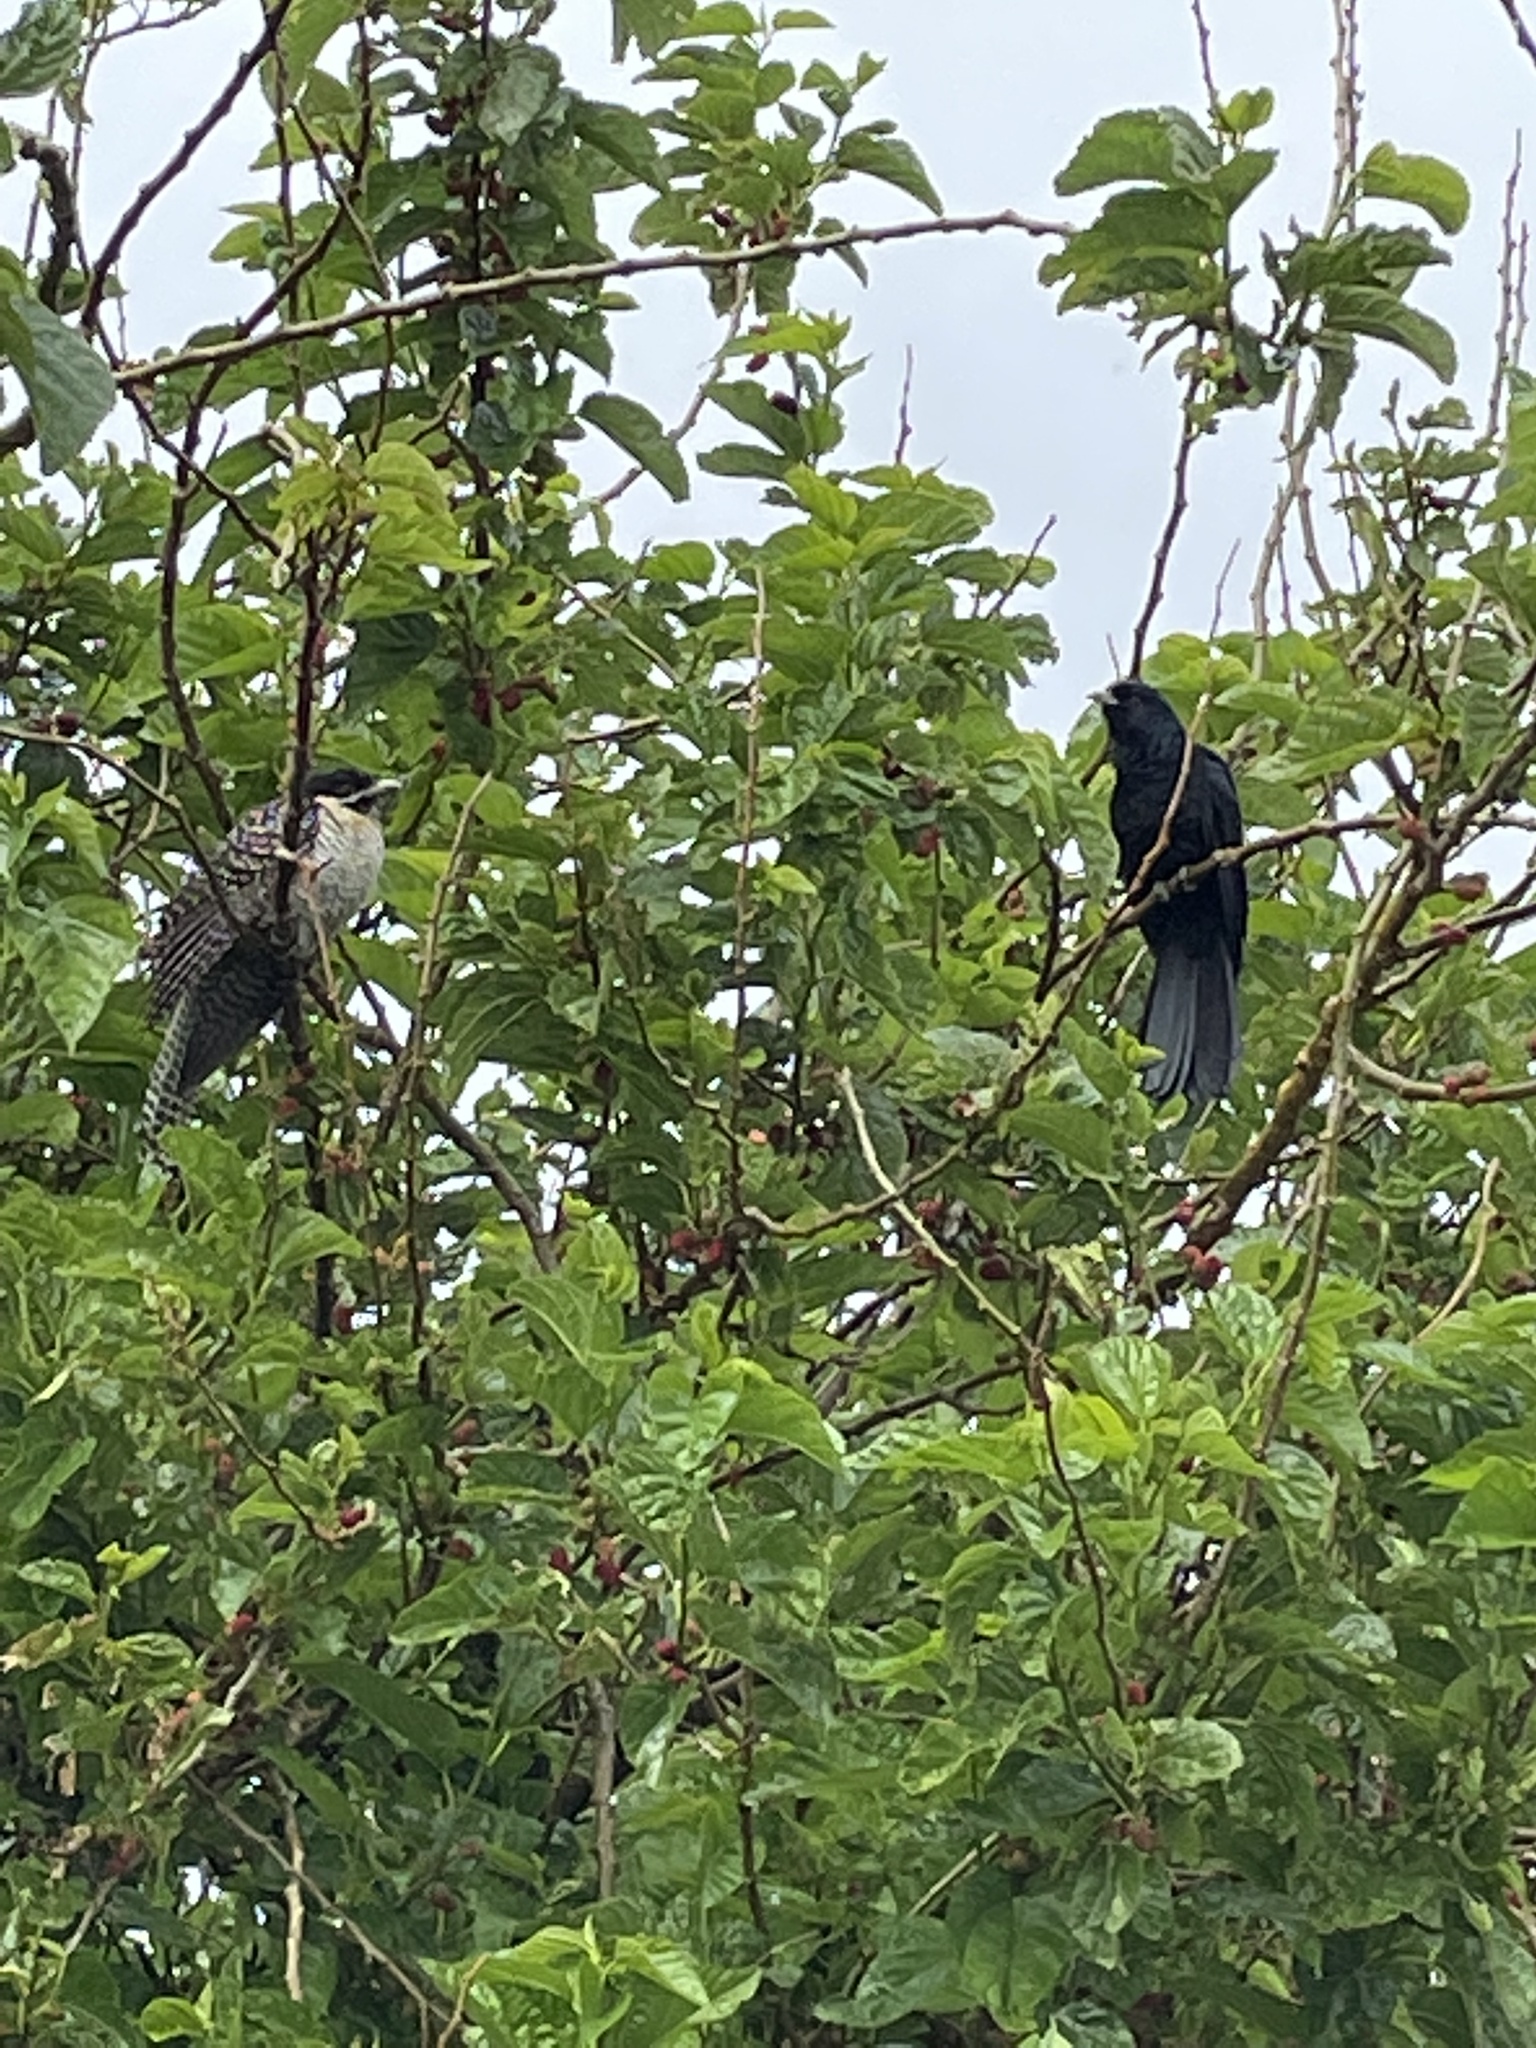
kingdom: Animalia
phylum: Chordata
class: Aves
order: Cuculiformes
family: Cuculidae
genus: Eudynamys
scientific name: Eudynamys orientalis
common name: Pacific koel
